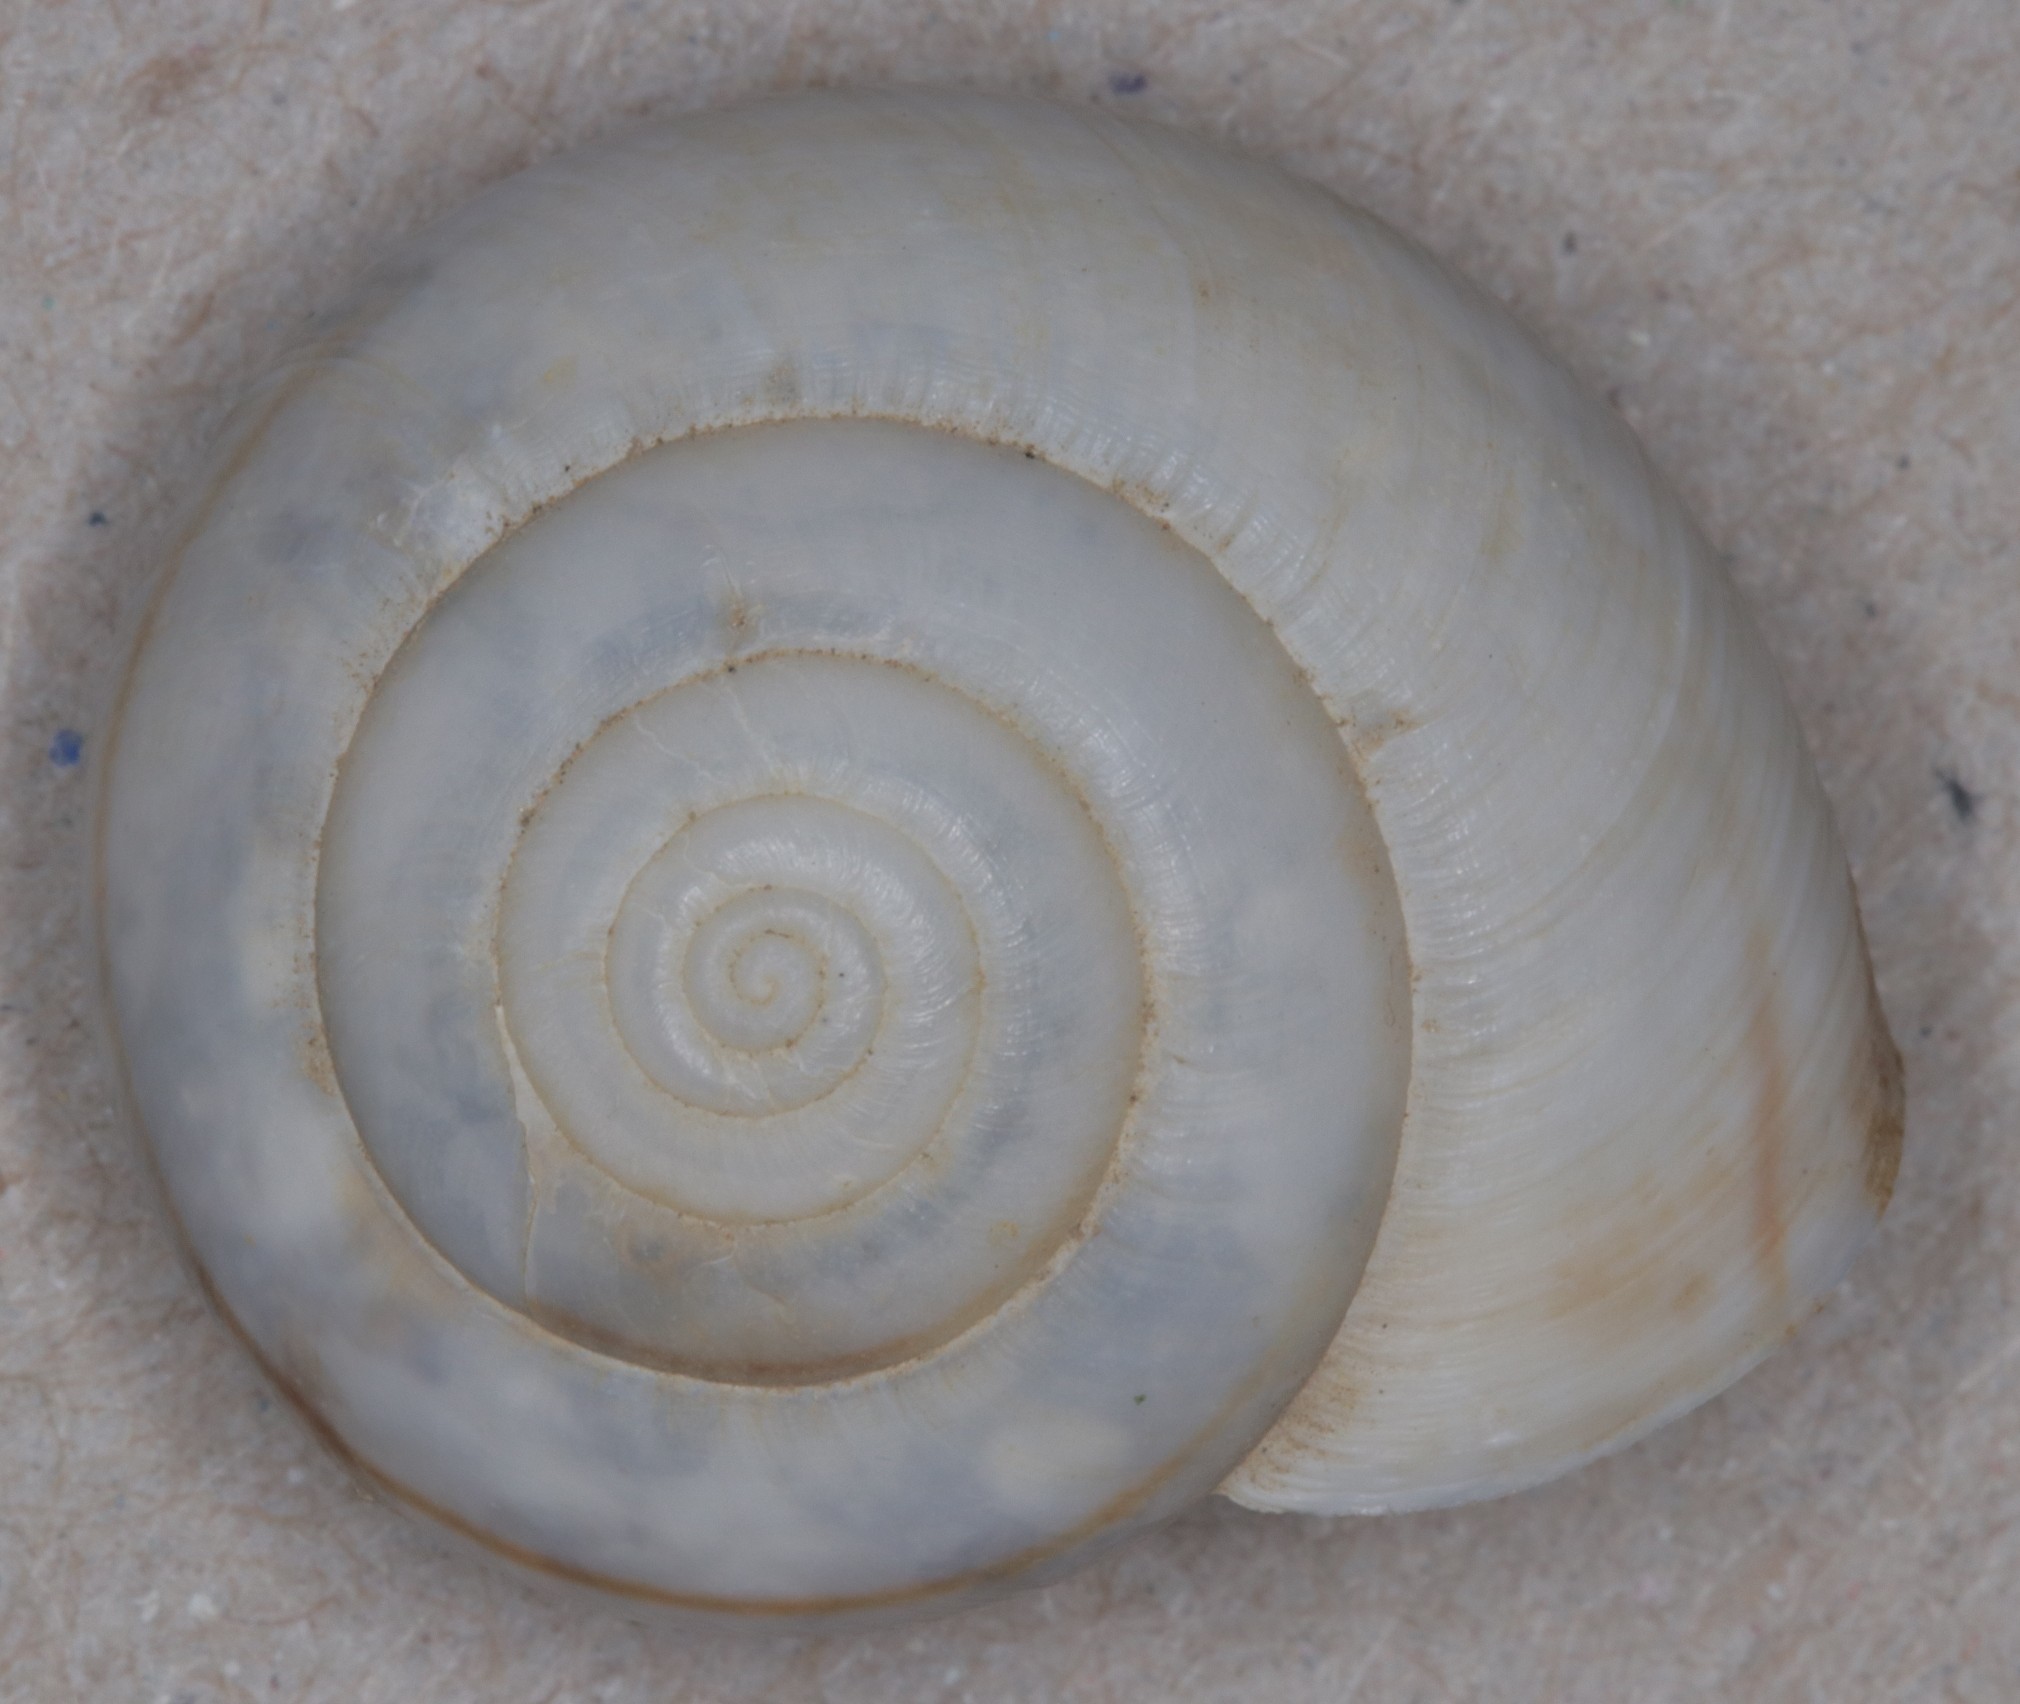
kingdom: Animalia
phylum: Mollusca
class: Gastropoda
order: Stylommatophora
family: Xanthonychidae
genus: Helminthoglypta
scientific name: Helminthoglypta traskii
